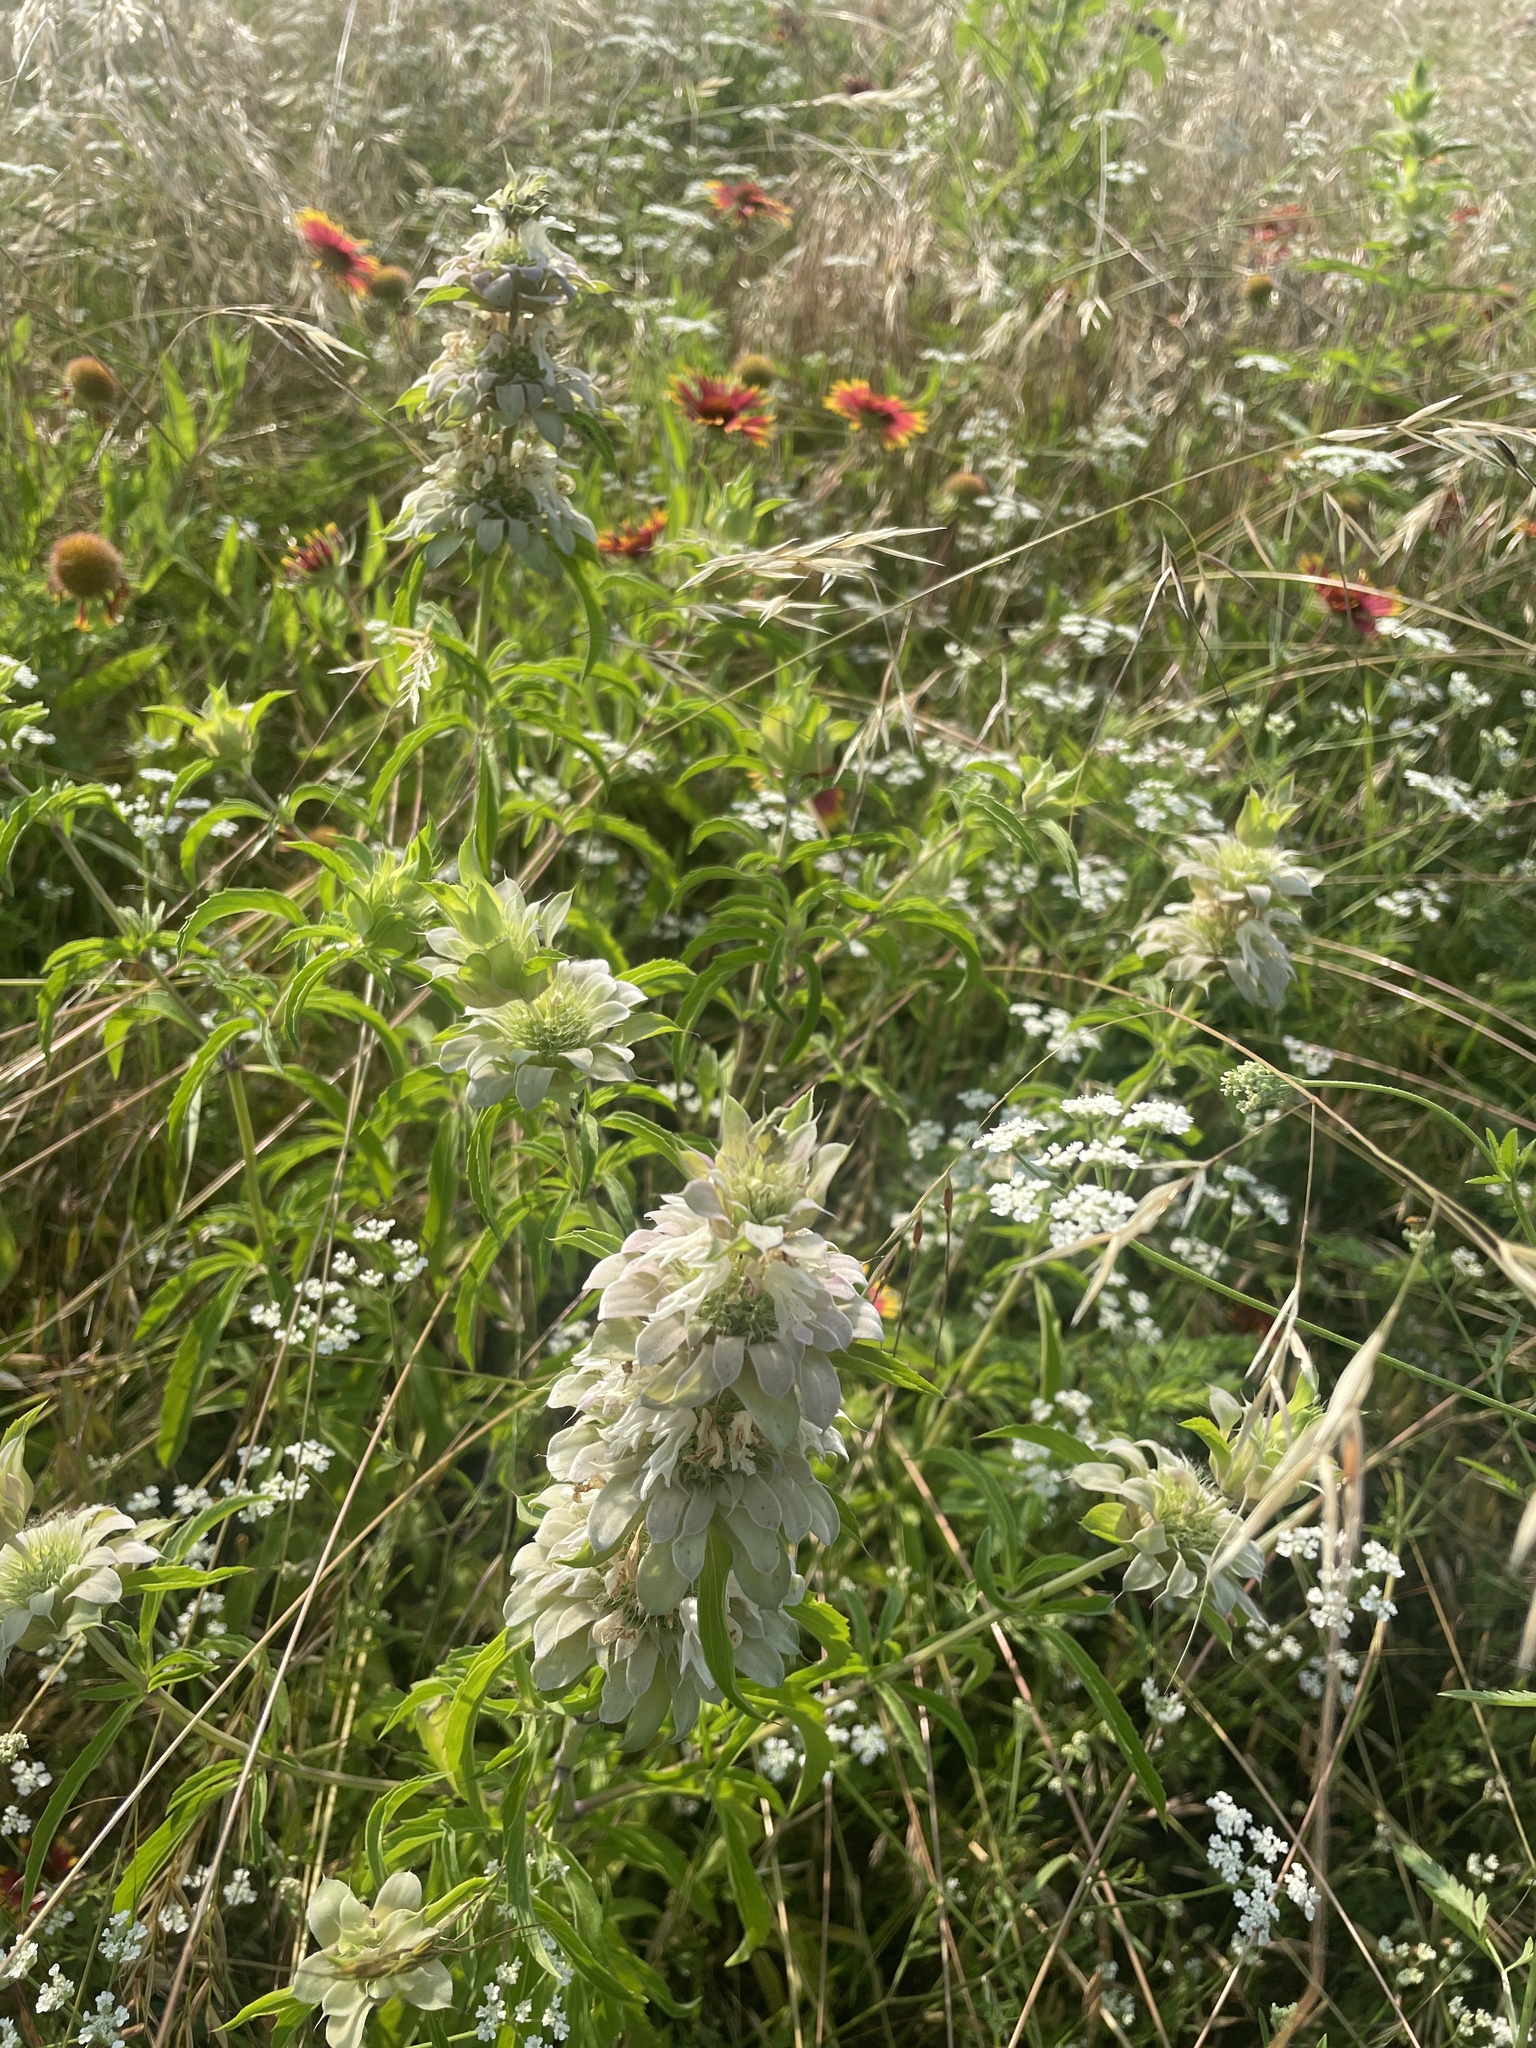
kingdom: Plantae
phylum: Tracheophyta
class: Magnoliopsida
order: Lamiales
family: Lamiaceae
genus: Monarda
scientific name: Monarda citriodora
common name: Lemon beebalm
